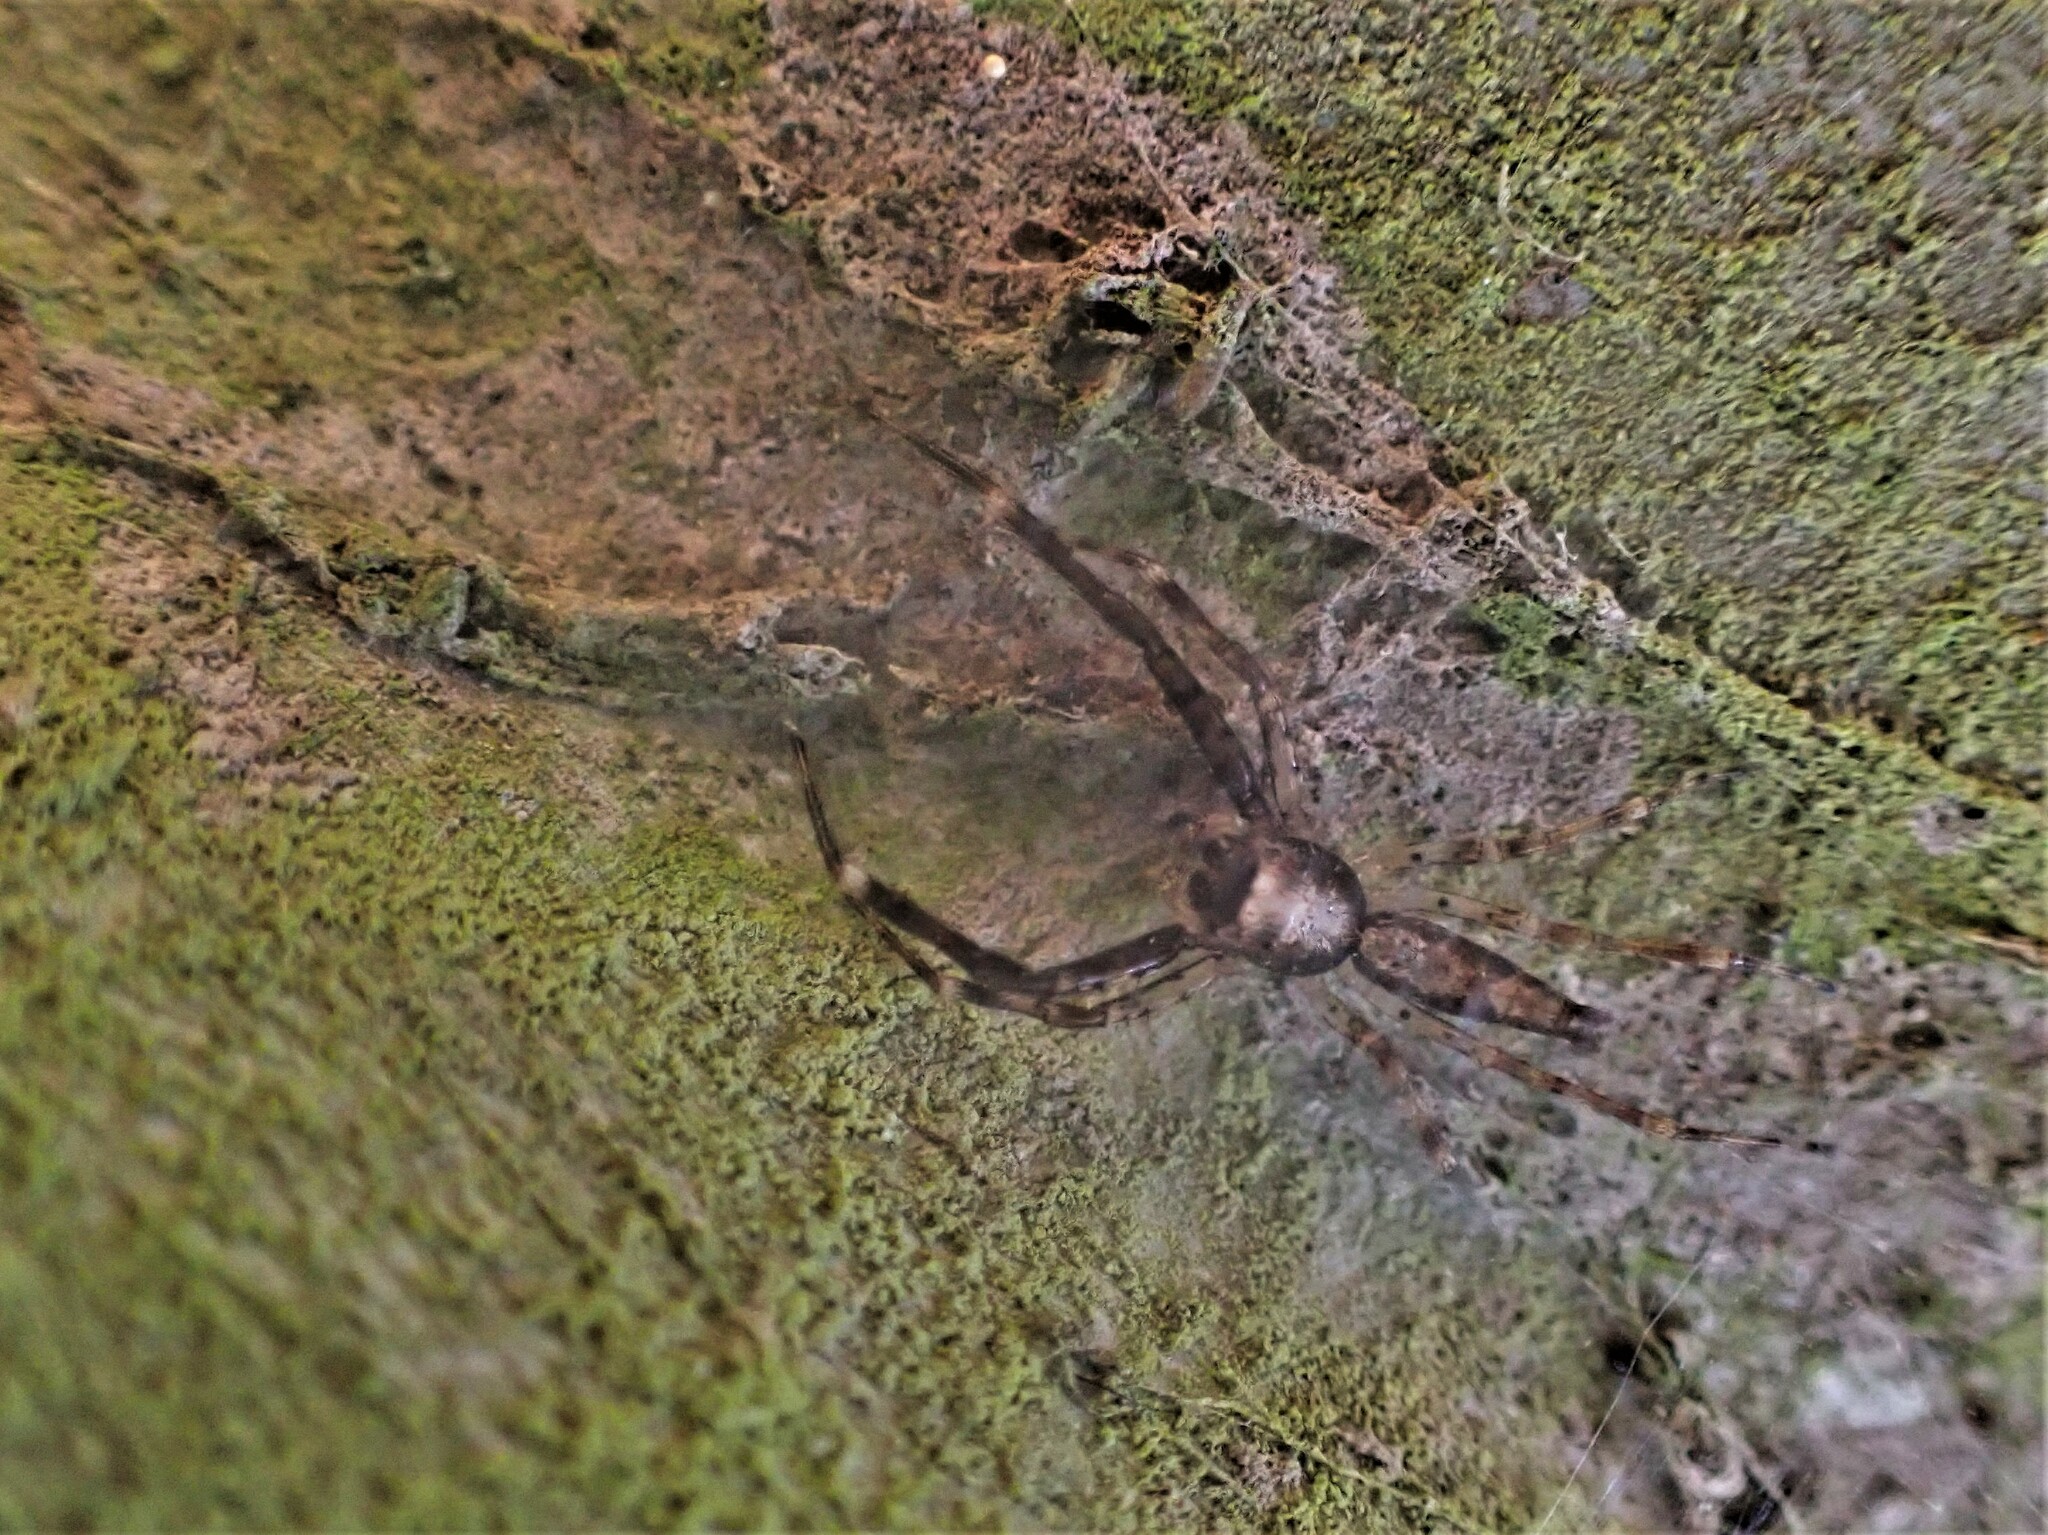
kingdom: Animalia
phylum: Arthropoda
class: Arachnida
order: Araneae
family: Salticidae
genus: Helpis
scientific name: Helpis minitabunda
